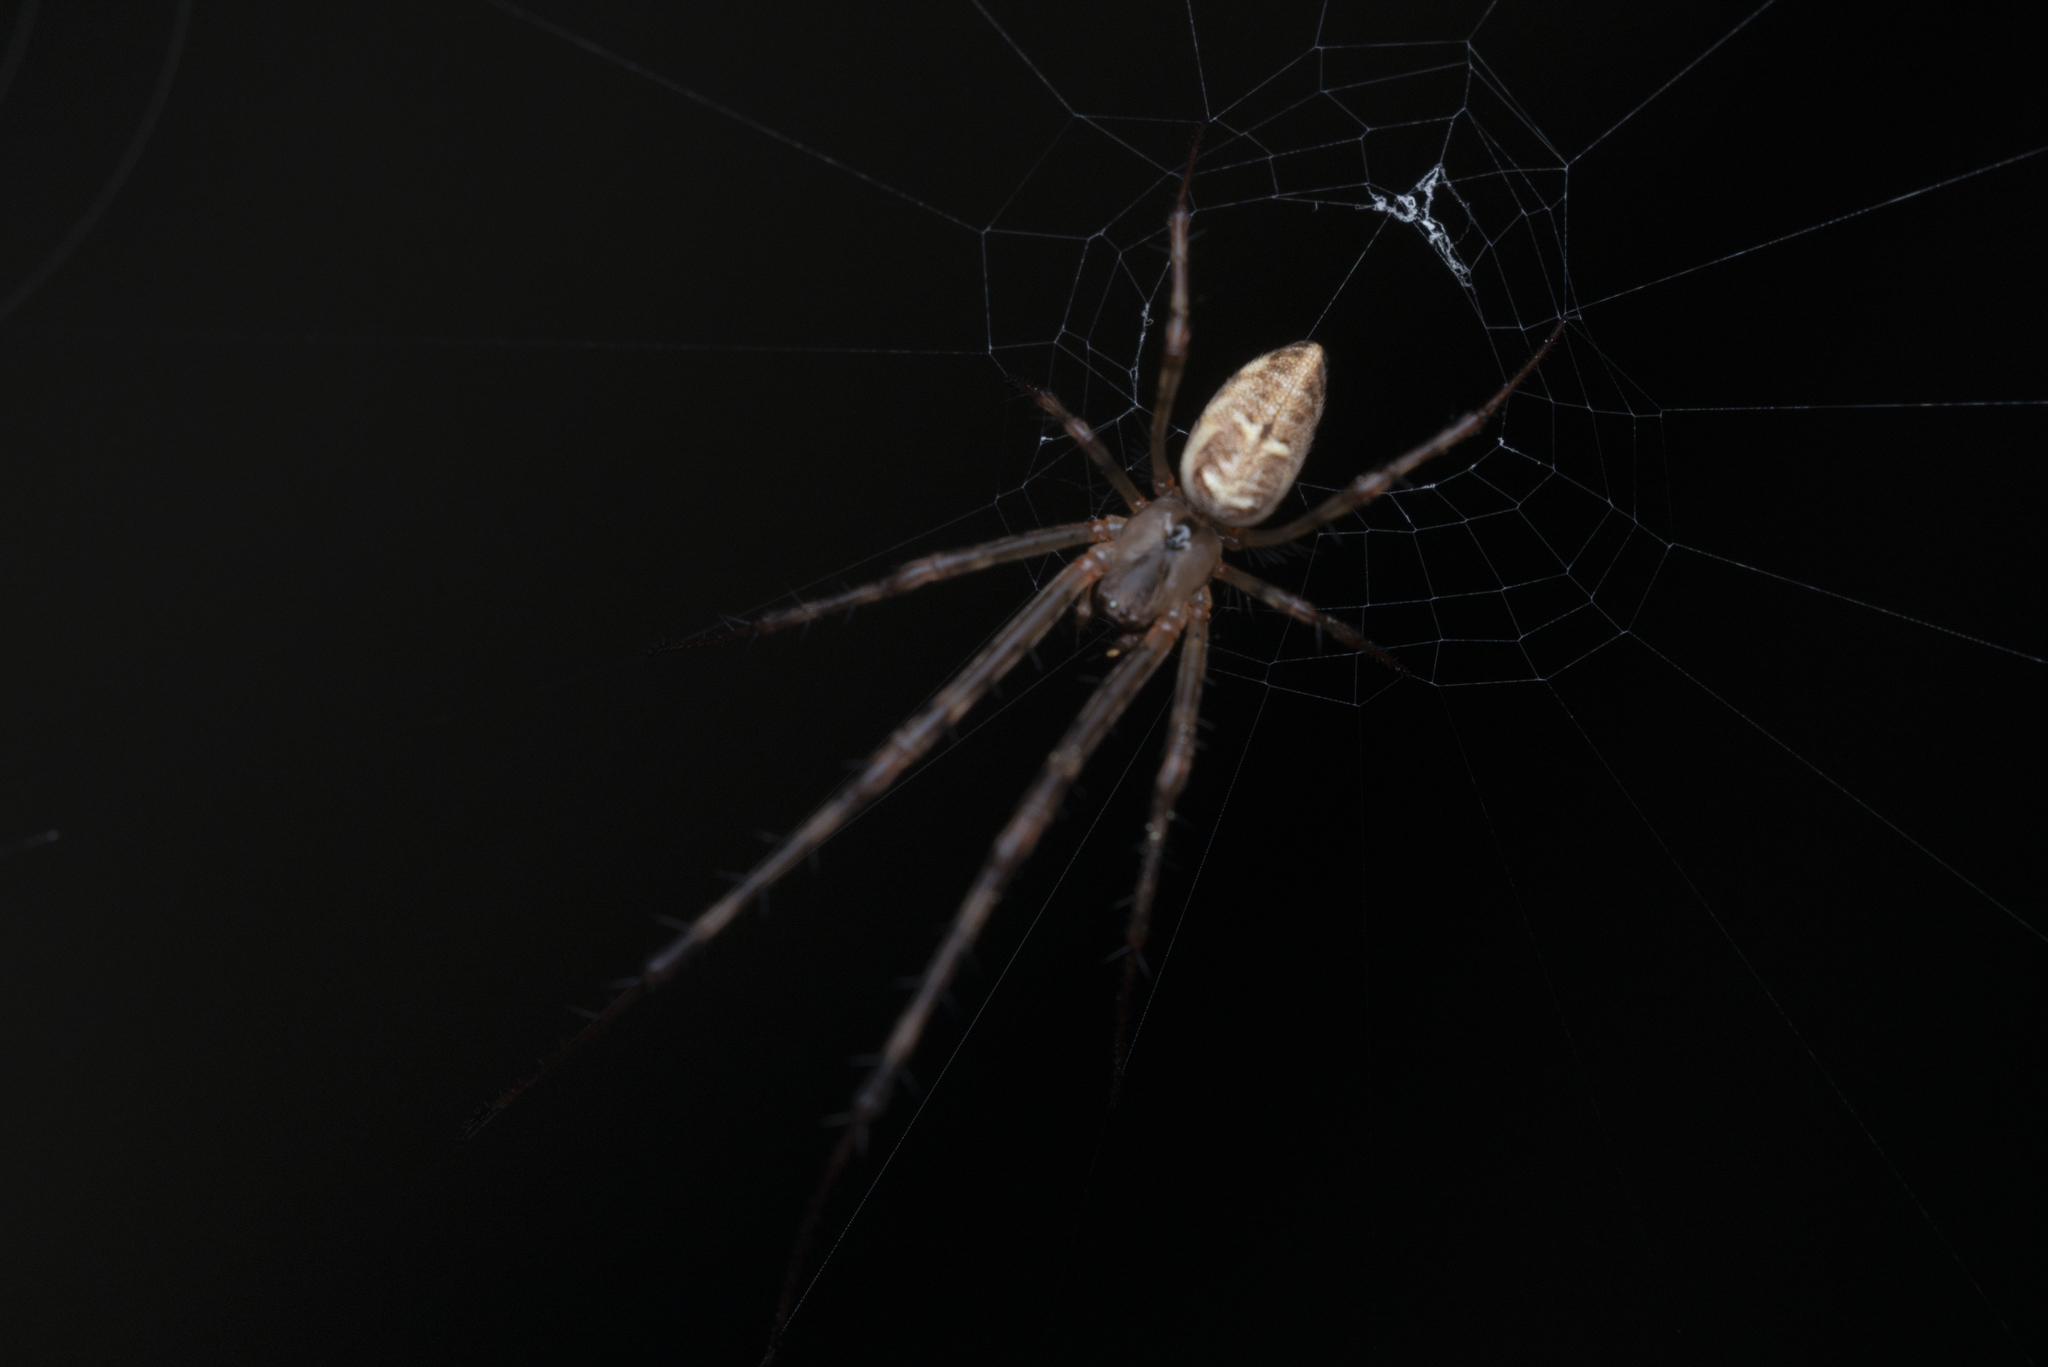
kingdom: Animalia
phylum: Arthropoda
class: Arachnida
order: Araneae
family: Tetragnathidae
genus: Tylorida
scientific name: Tylorida ventralis
